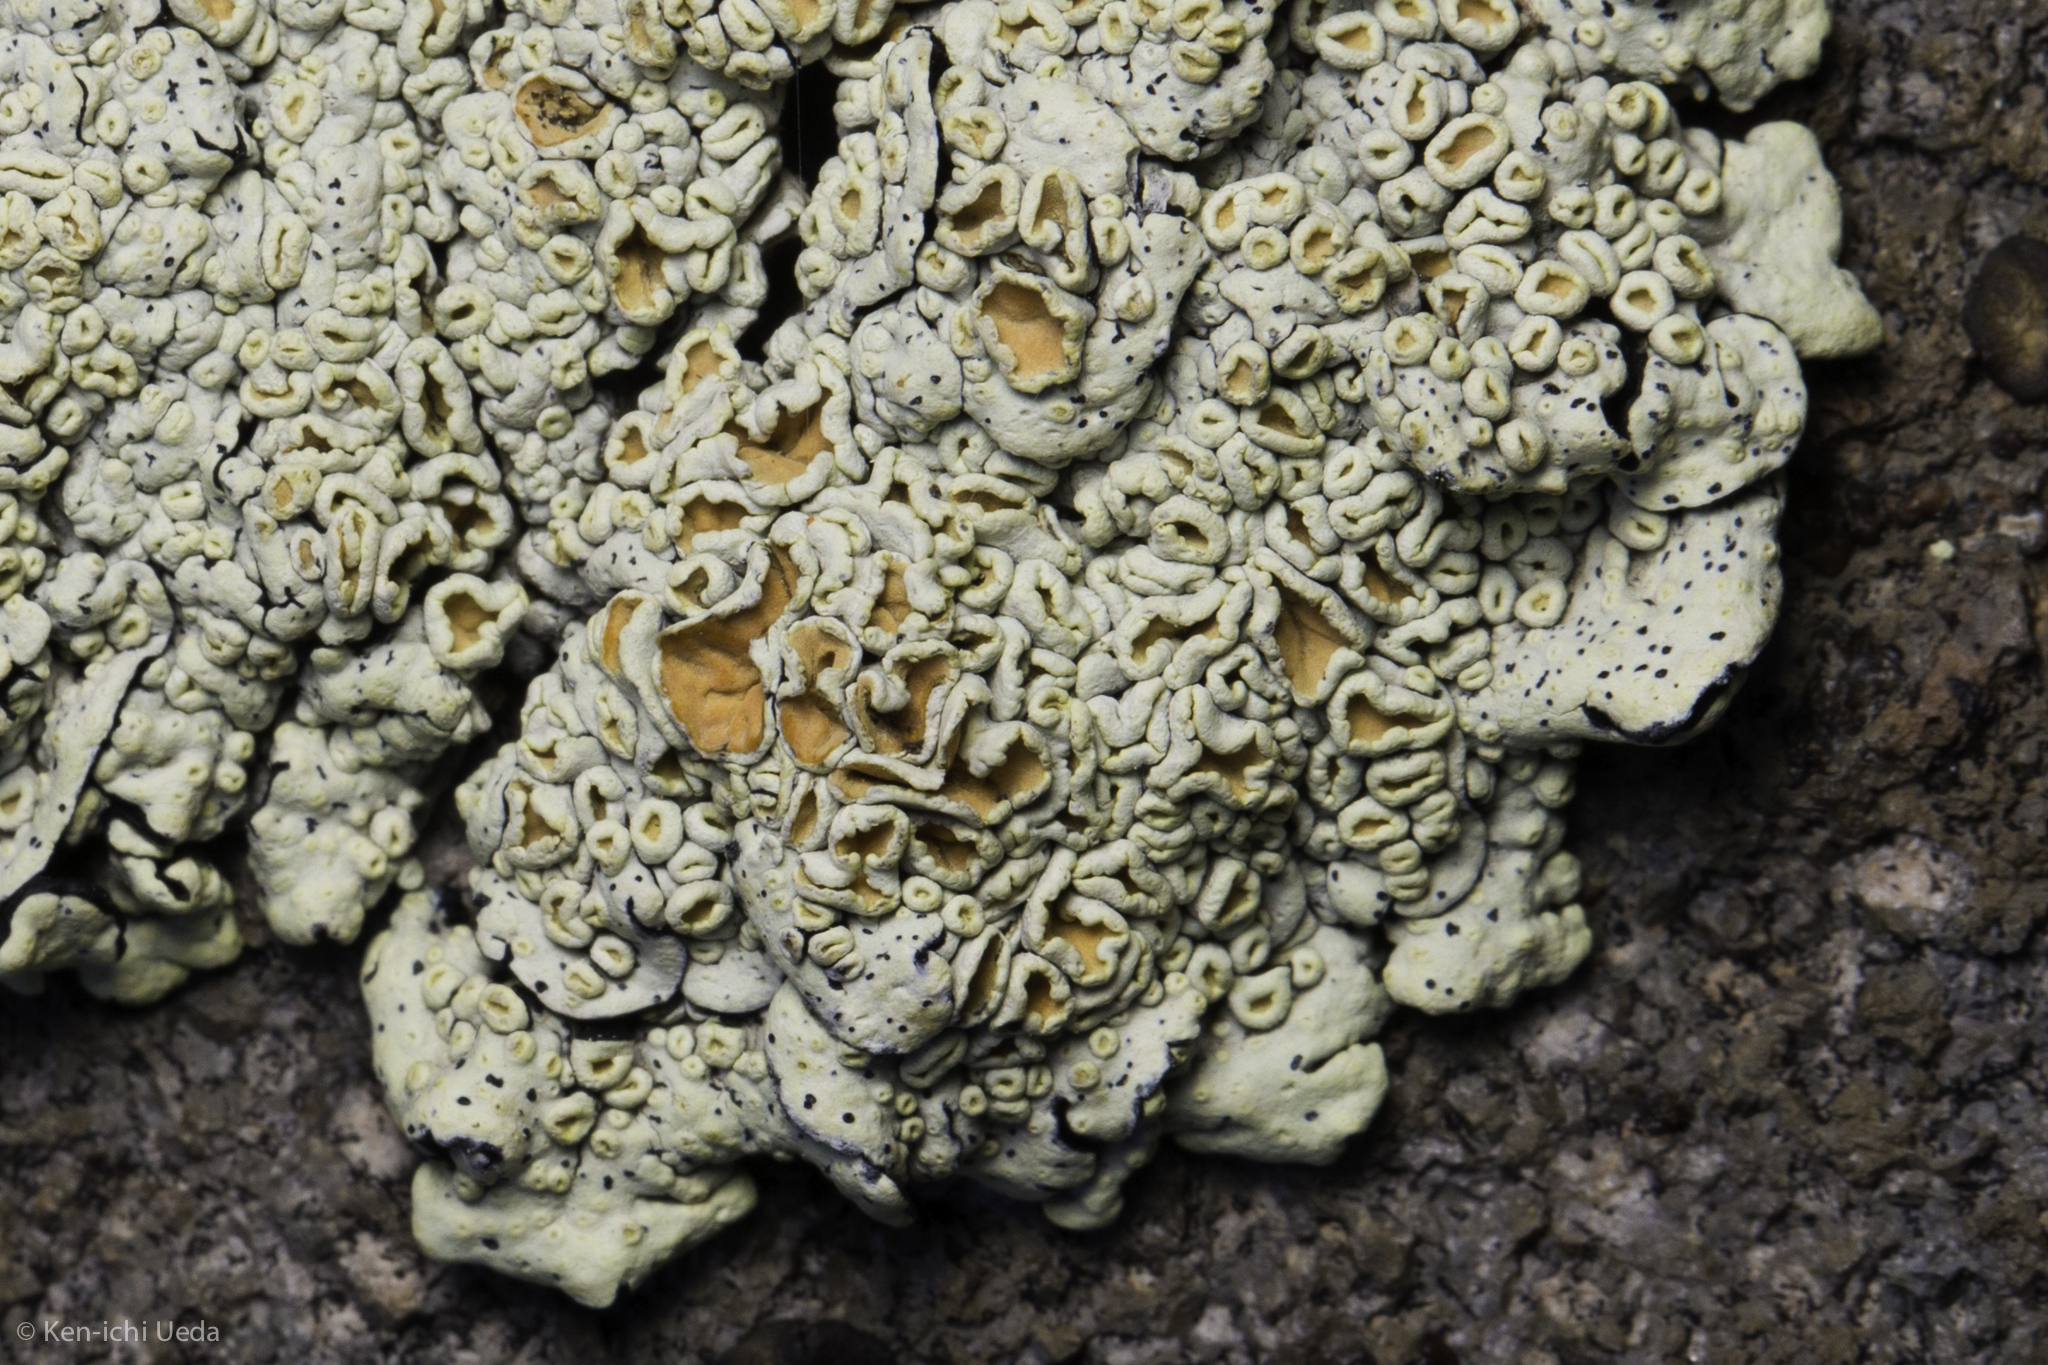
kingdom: Fungi
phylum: Ascomycota
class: Lecanoromycetes
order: Lecanorales
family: Lecanoraceae
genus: Omphalodina
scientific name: Omphalodina chrysoleuca
